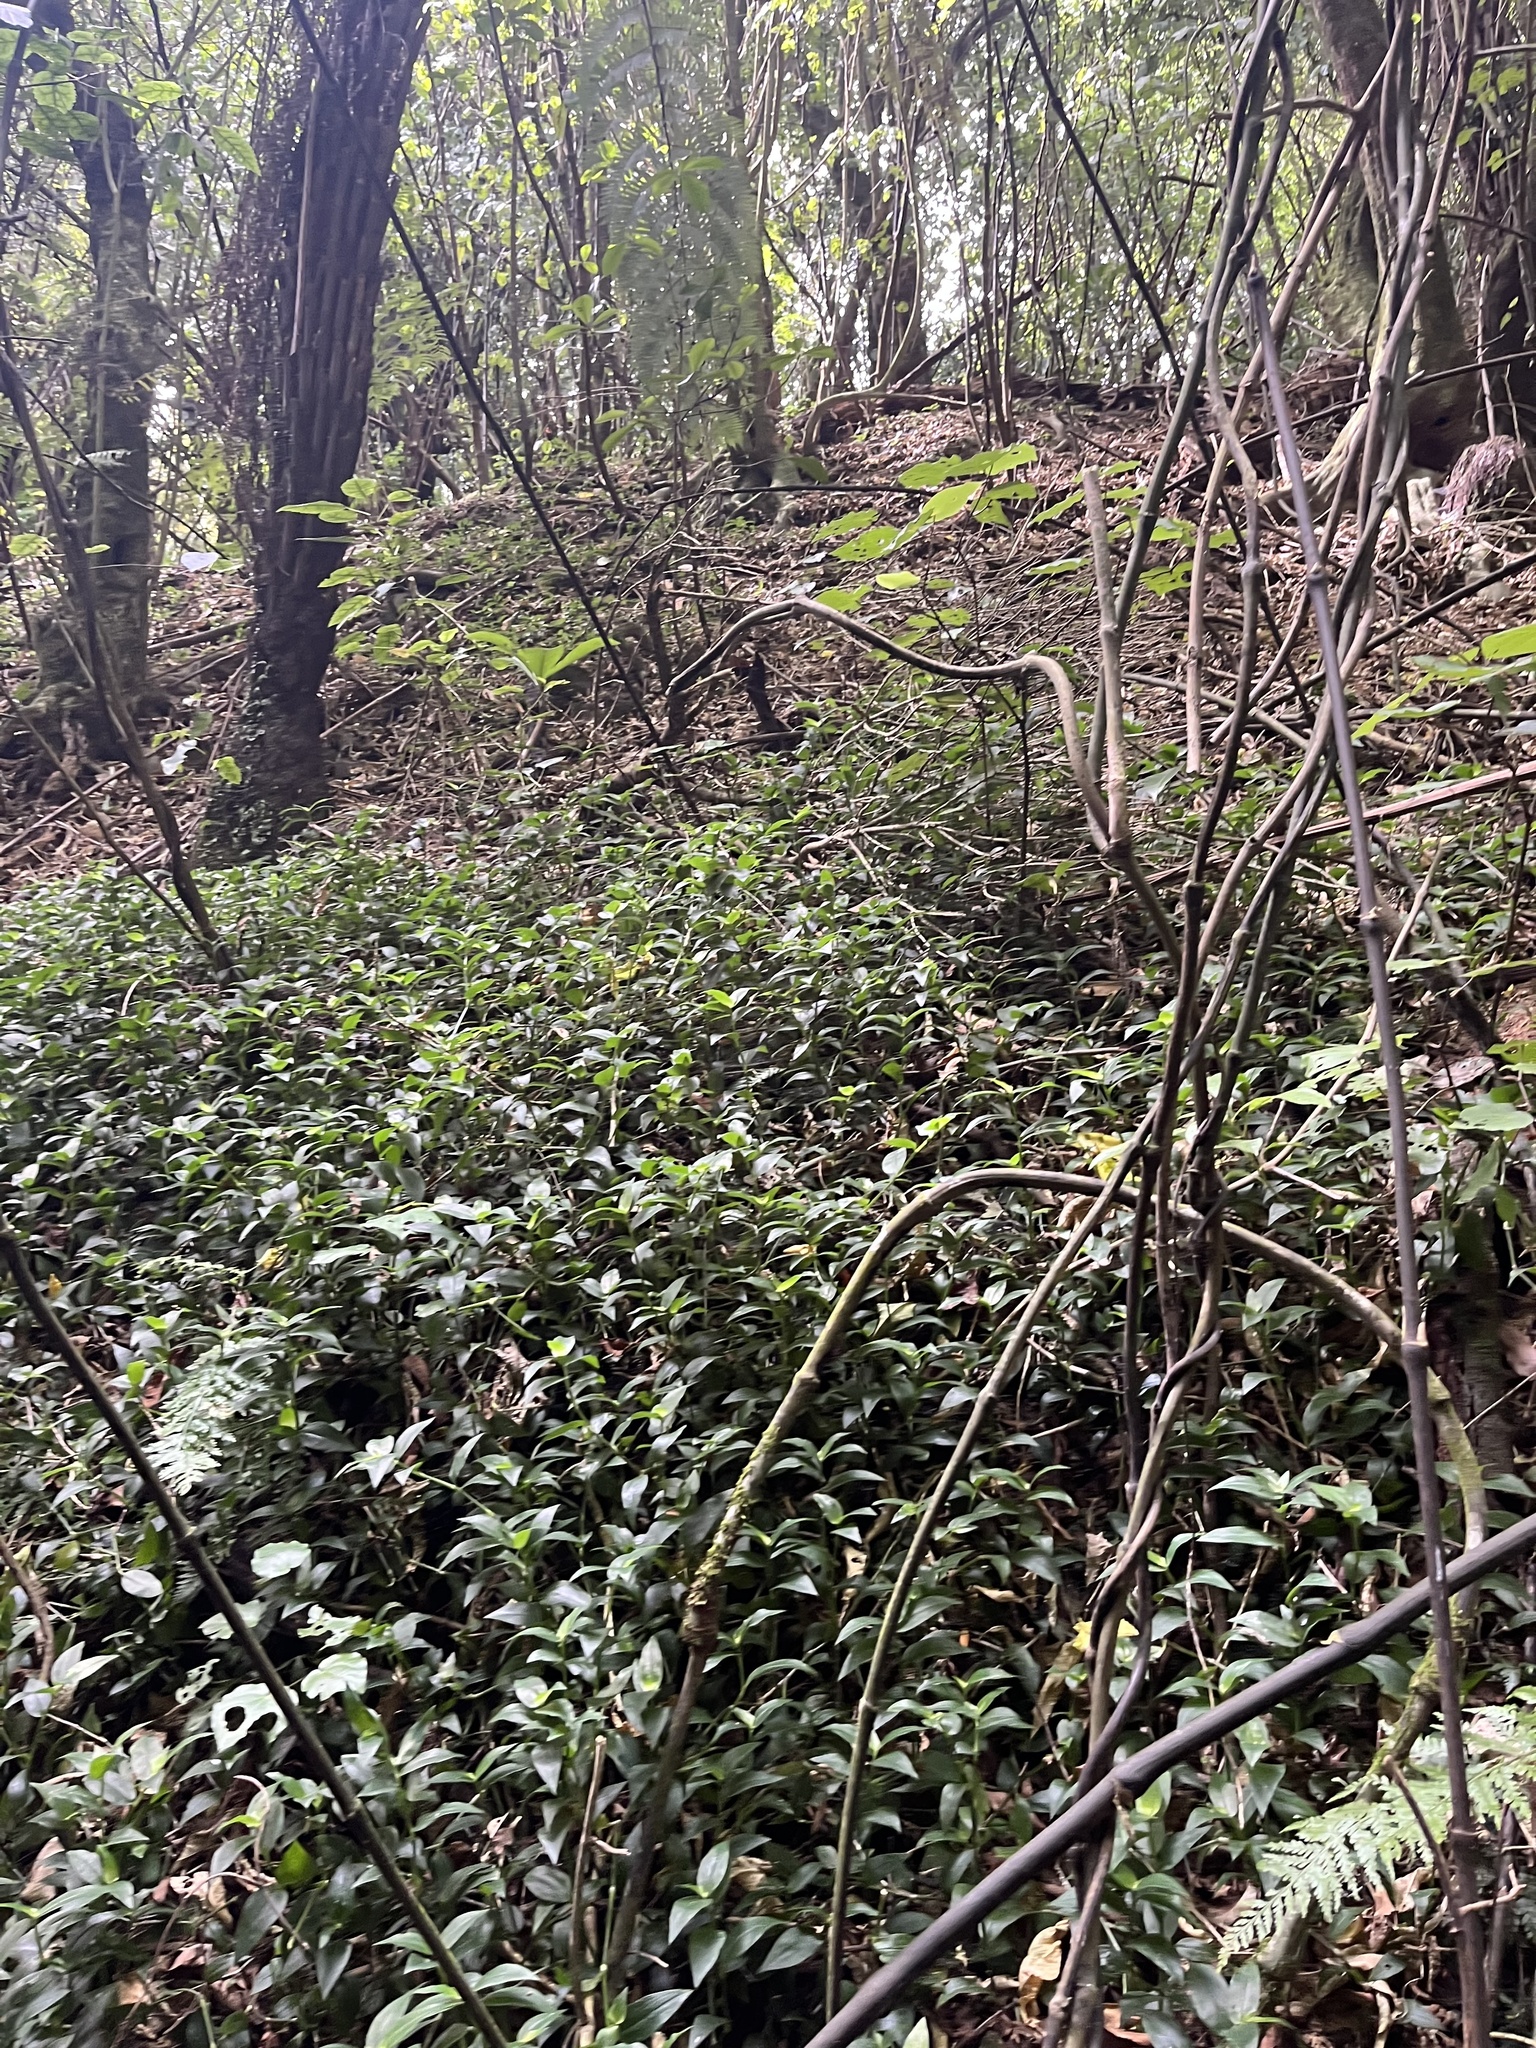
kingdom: Plantae
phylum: Tracheophyta
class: Liliopsida
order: Commelinales
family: Commelinaceae
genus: Tradescantia
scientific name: Tradescantia fluminensis
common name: Wandering-jew
